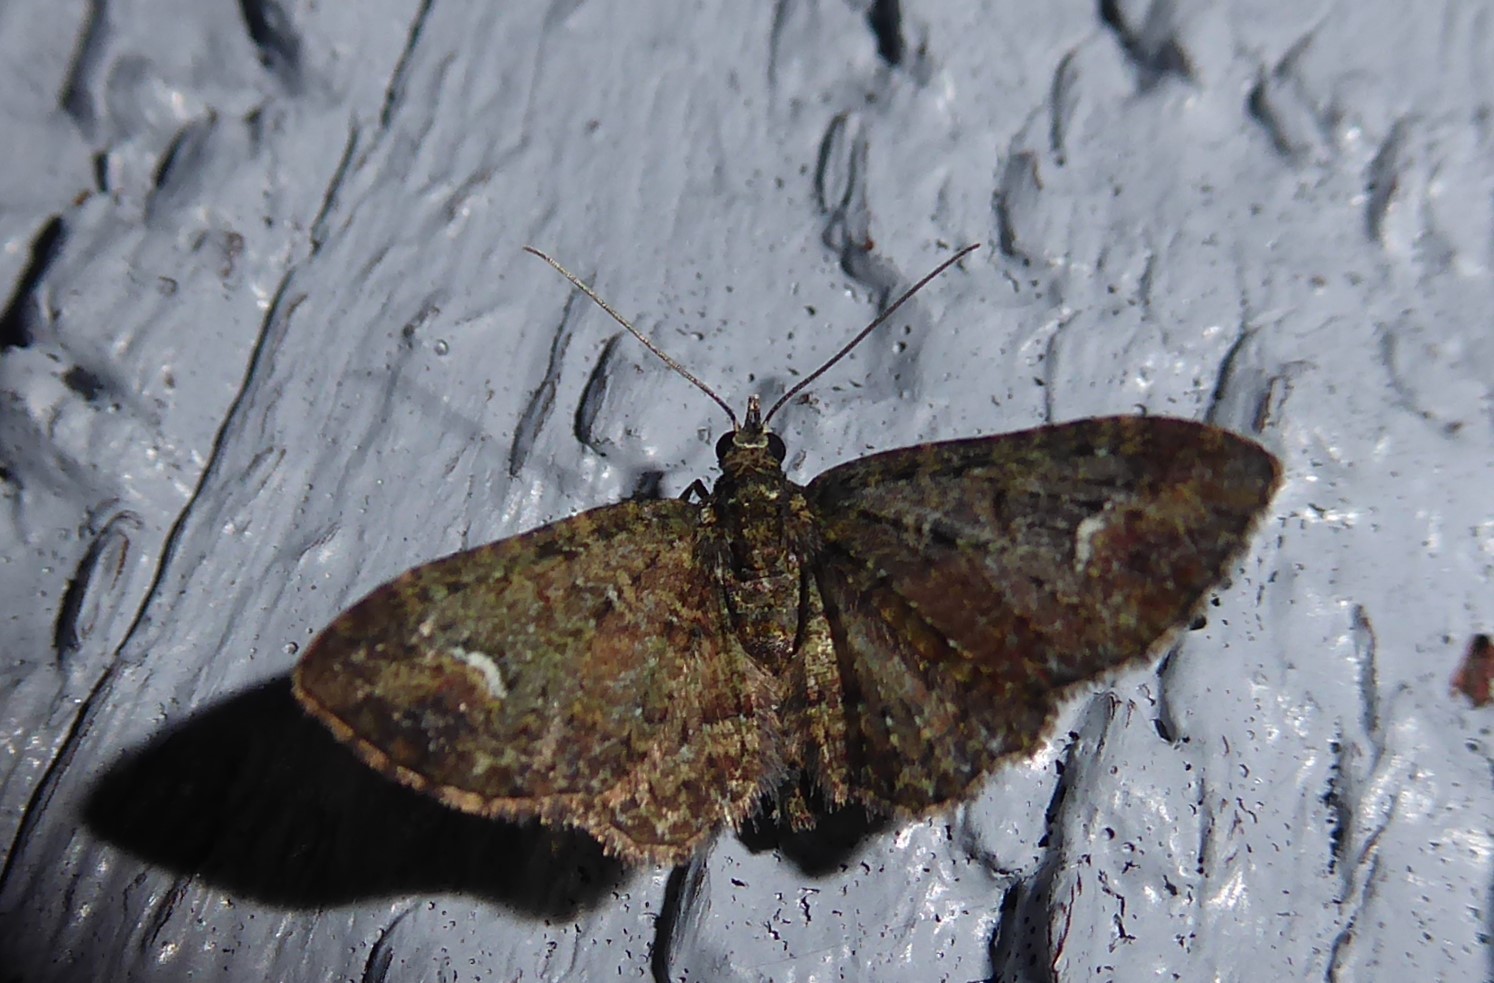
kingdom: Animalia
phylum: Arthropoda
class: Insecta
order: Lepidoptera
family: Geometridae
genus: Pasiphilodes
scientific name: Pasiphilodes testulata
